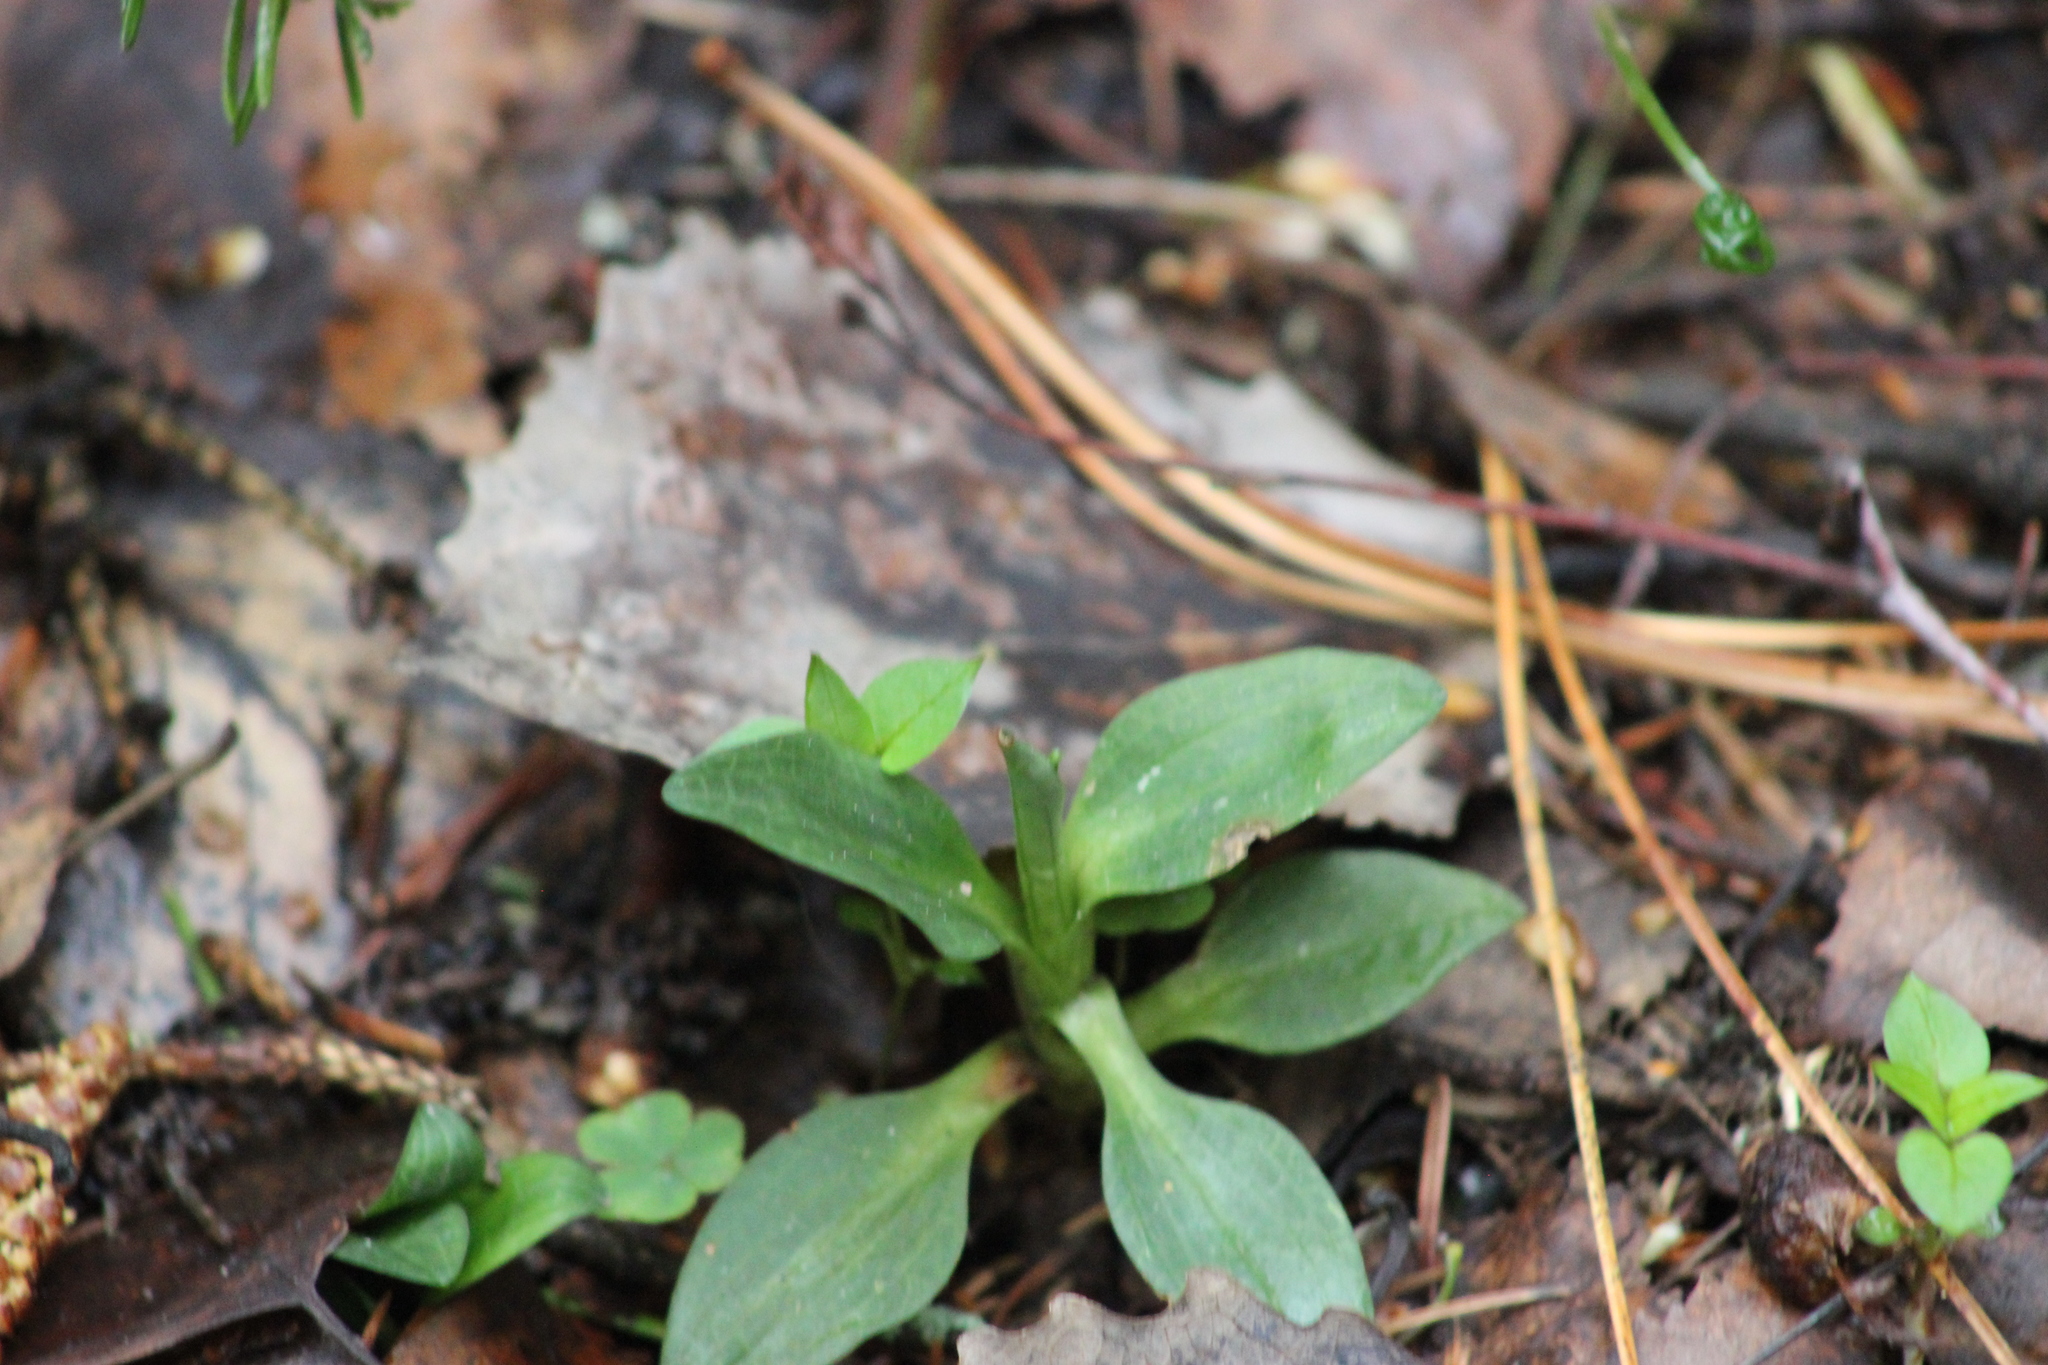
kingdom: Plantae
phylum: Tracheophyta
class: Liliopsida
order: Asparagales
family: Orchidaceae
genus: Goodyera
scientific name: Goodyera repens
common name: Creeping lady's-tresses
